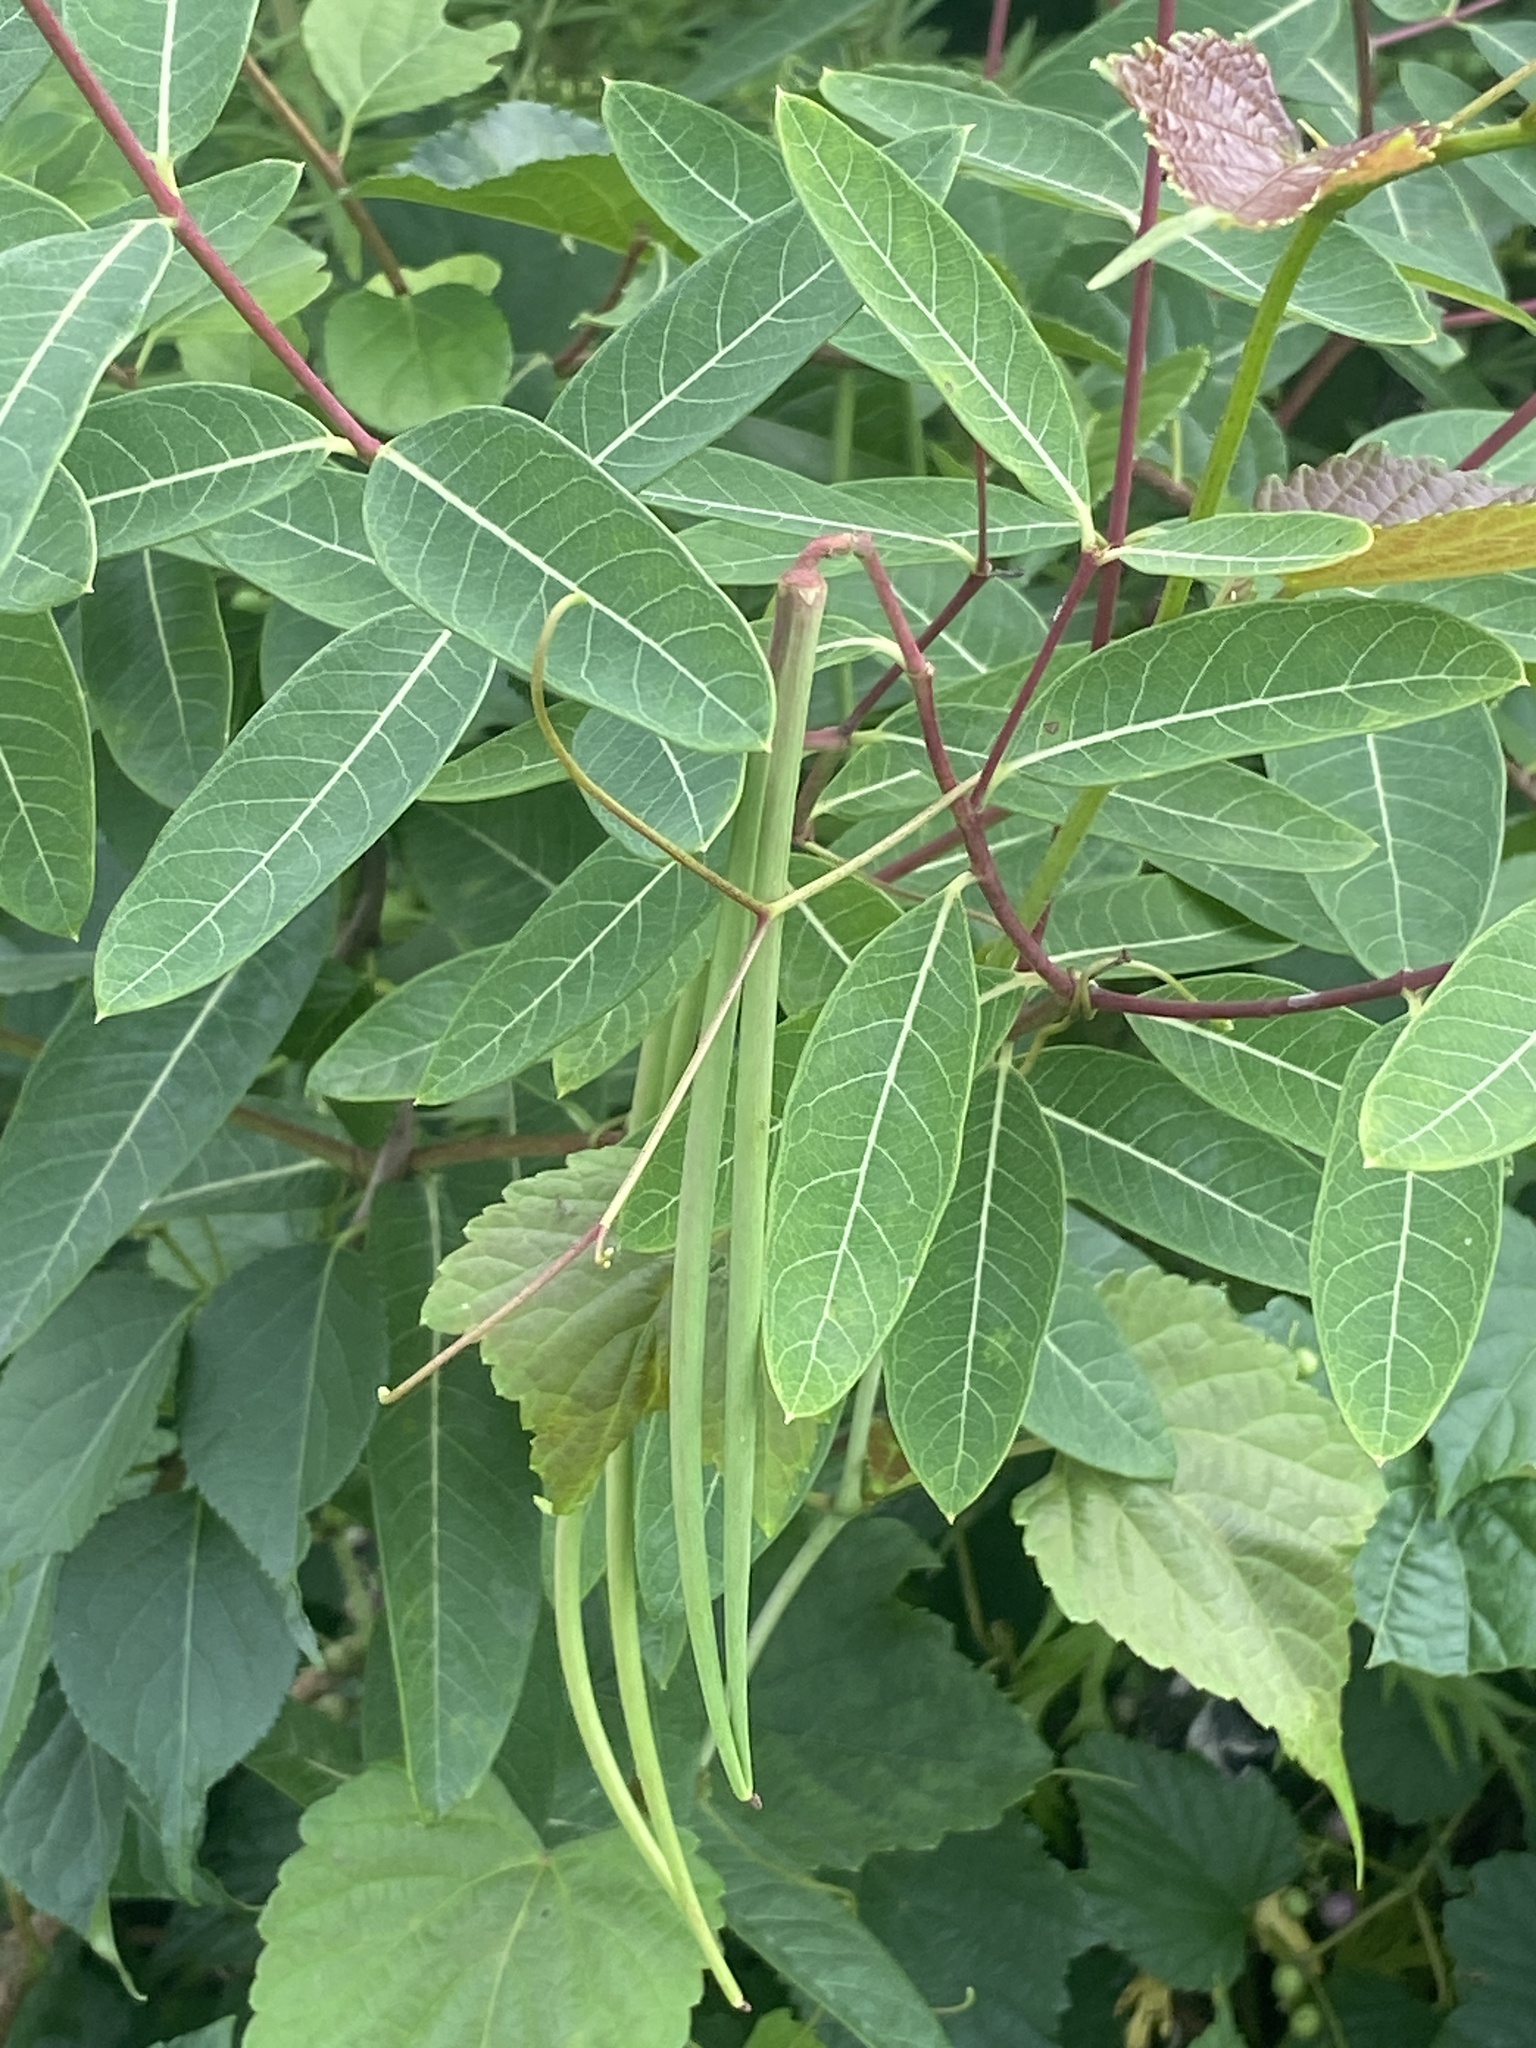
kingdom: Plantae
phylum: Tracheophyta
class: Magnoliopsida
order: Gentianales
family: Apocynaceae
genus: Apocynum
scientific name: Apocynum cannabinum
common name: Hemp dogbane
